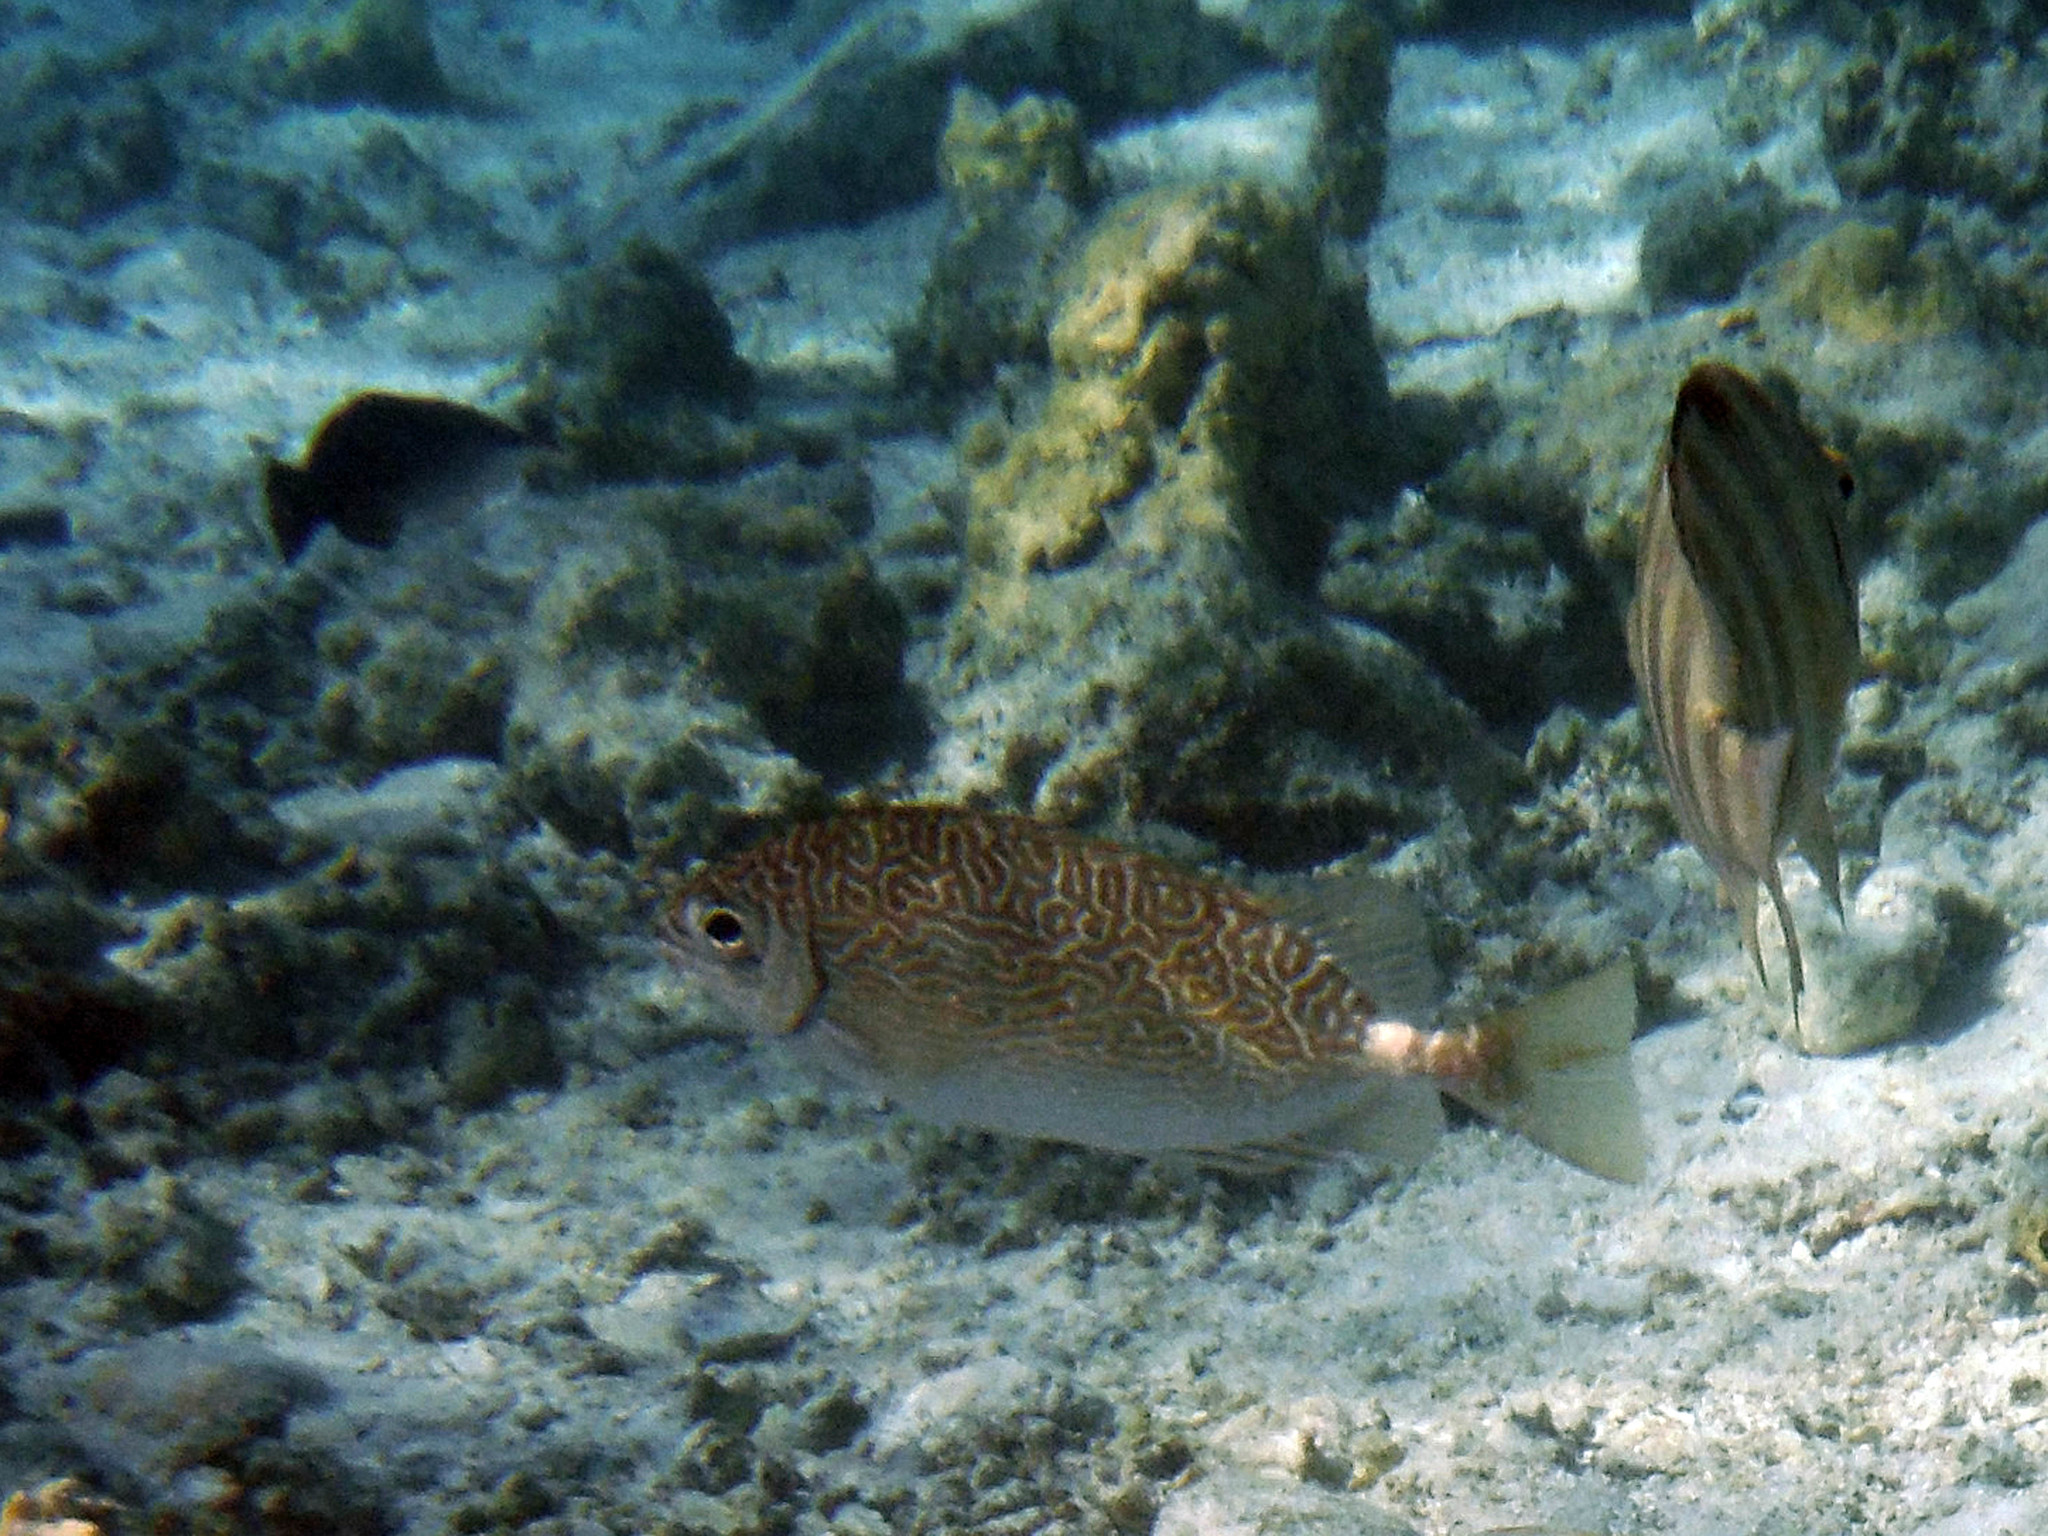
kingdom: Animalia
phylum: Chordata
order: Perciformes
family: Siganidae
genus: Siganus
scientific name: Siganus spinus
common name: Scribbled rabbitfish
